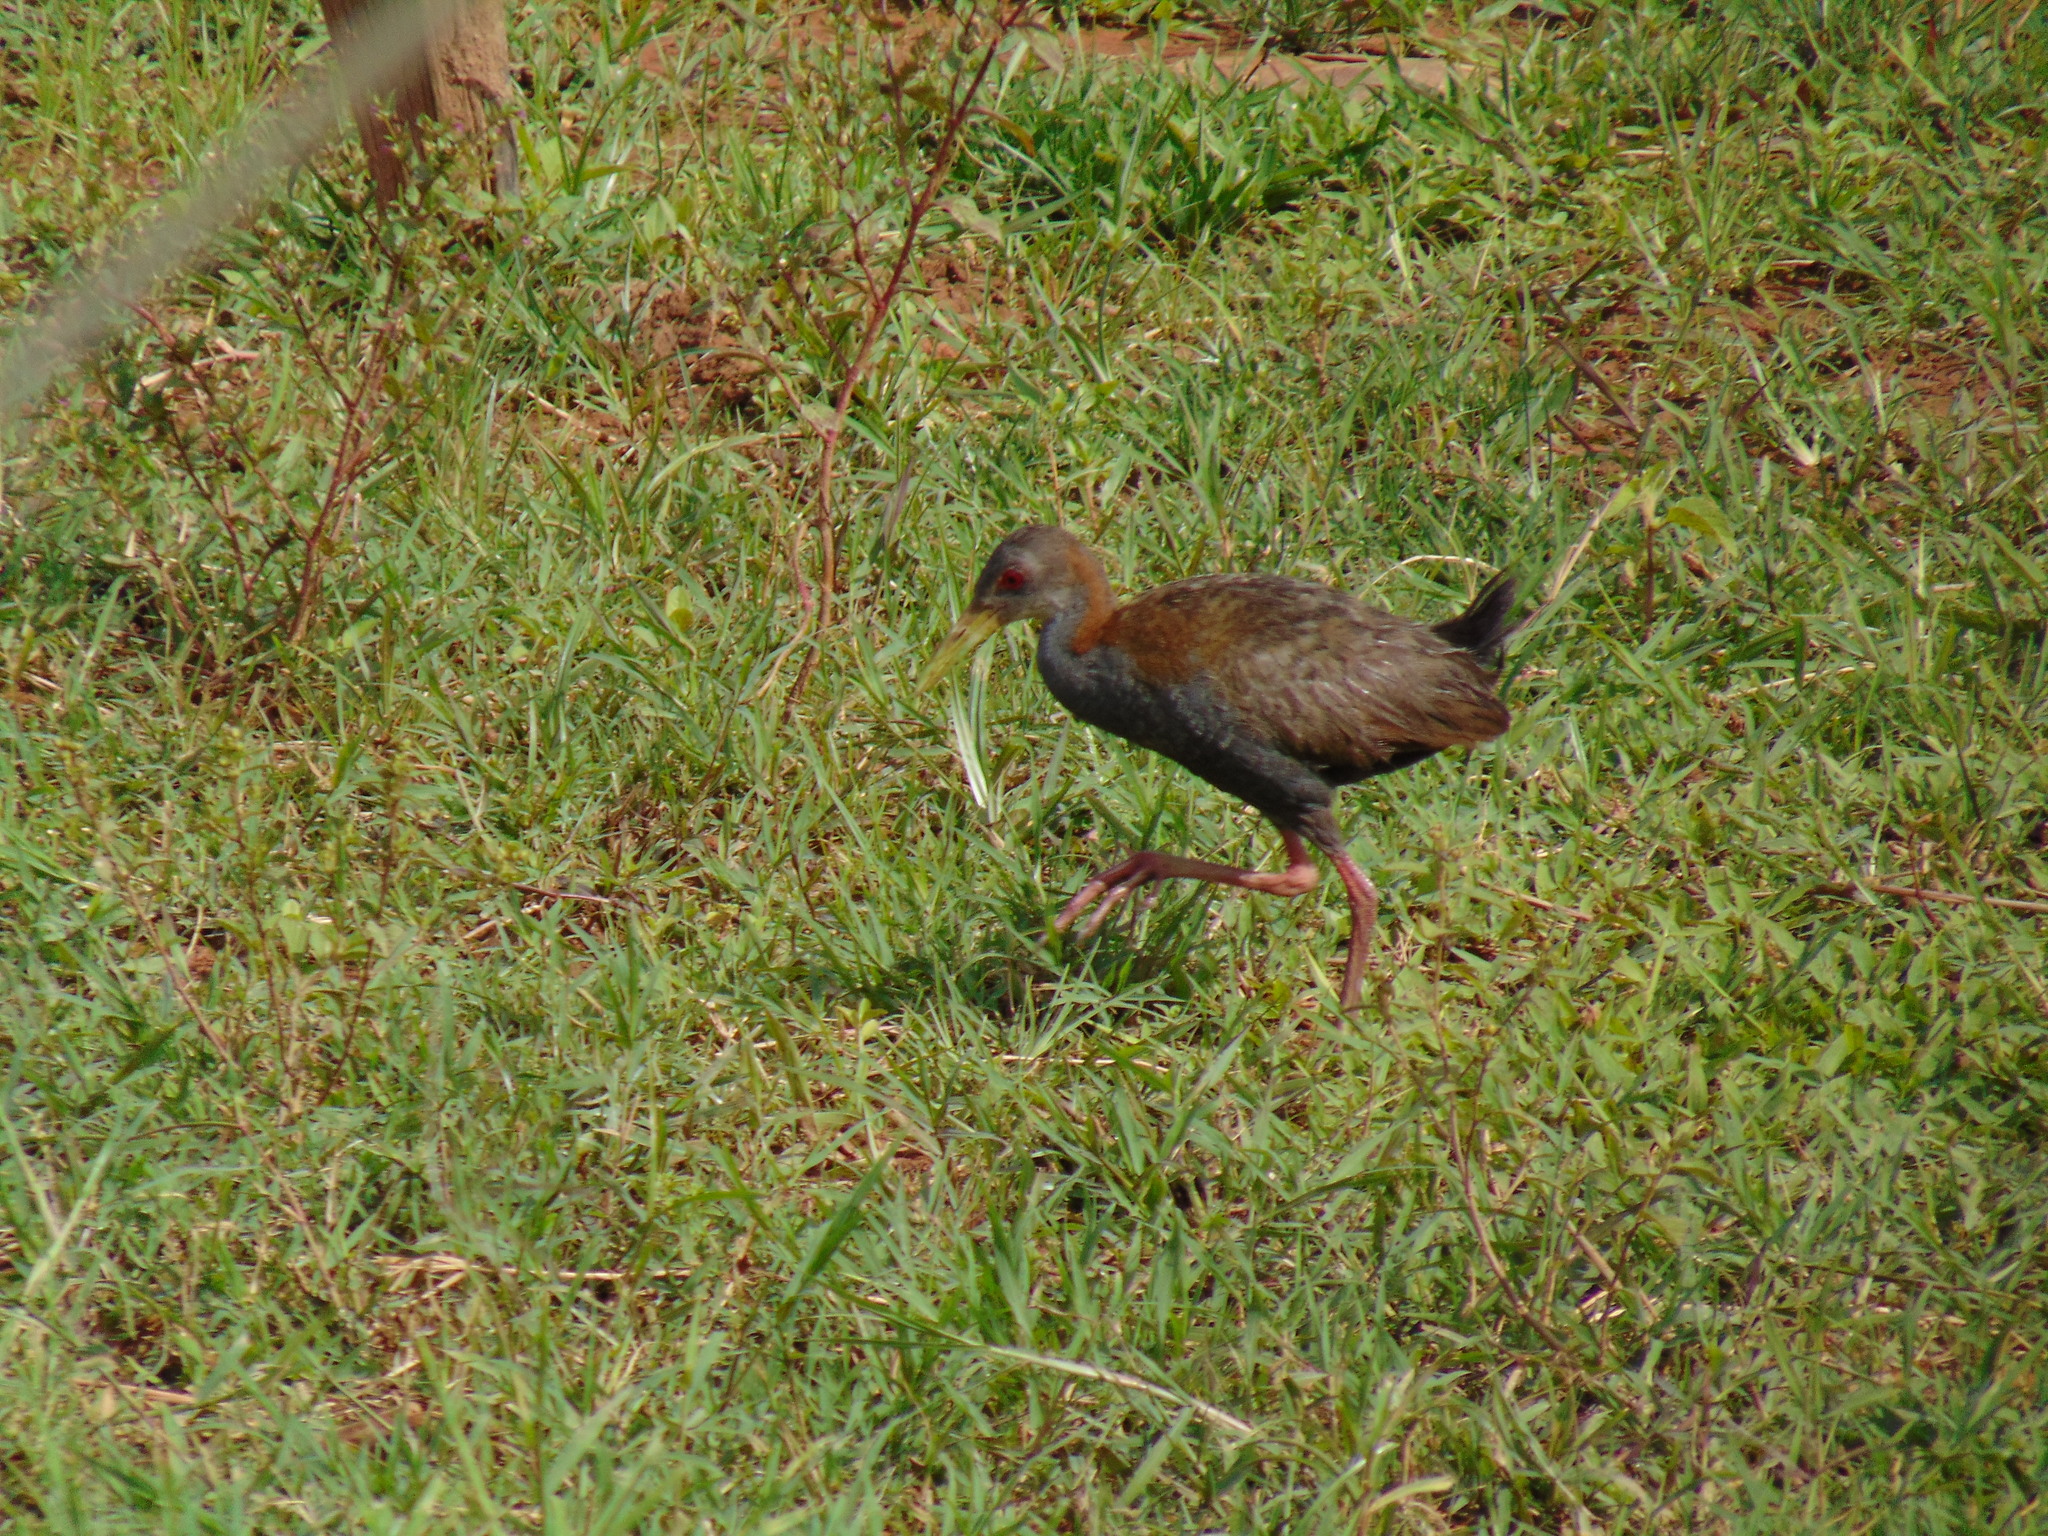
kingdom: Animalia
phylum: Chordata
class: Aves
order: Gruiformes
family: Rallidae
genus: Aramides
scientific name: Aramides saracura
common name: Slaty-breasted wood rail
